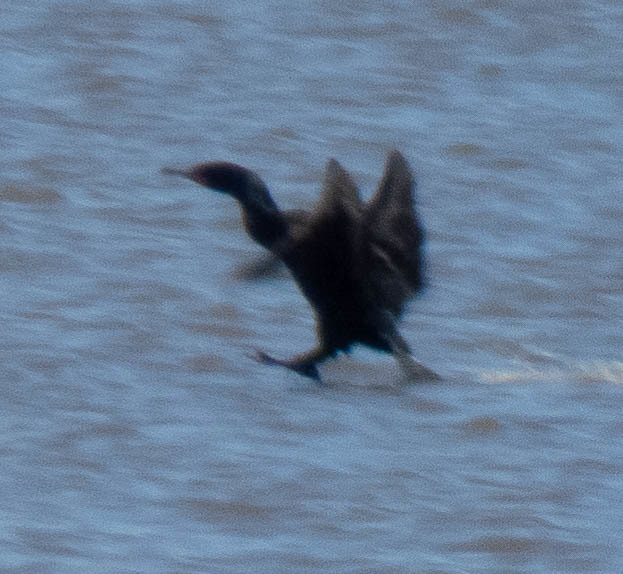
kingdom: Animalia
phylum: Chordata
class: Aves
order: Suliformes
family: Phalacrocoracidae
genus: Phalacrocorax
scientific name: Phalacrocorax auritus
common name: Double-crested cormorant
